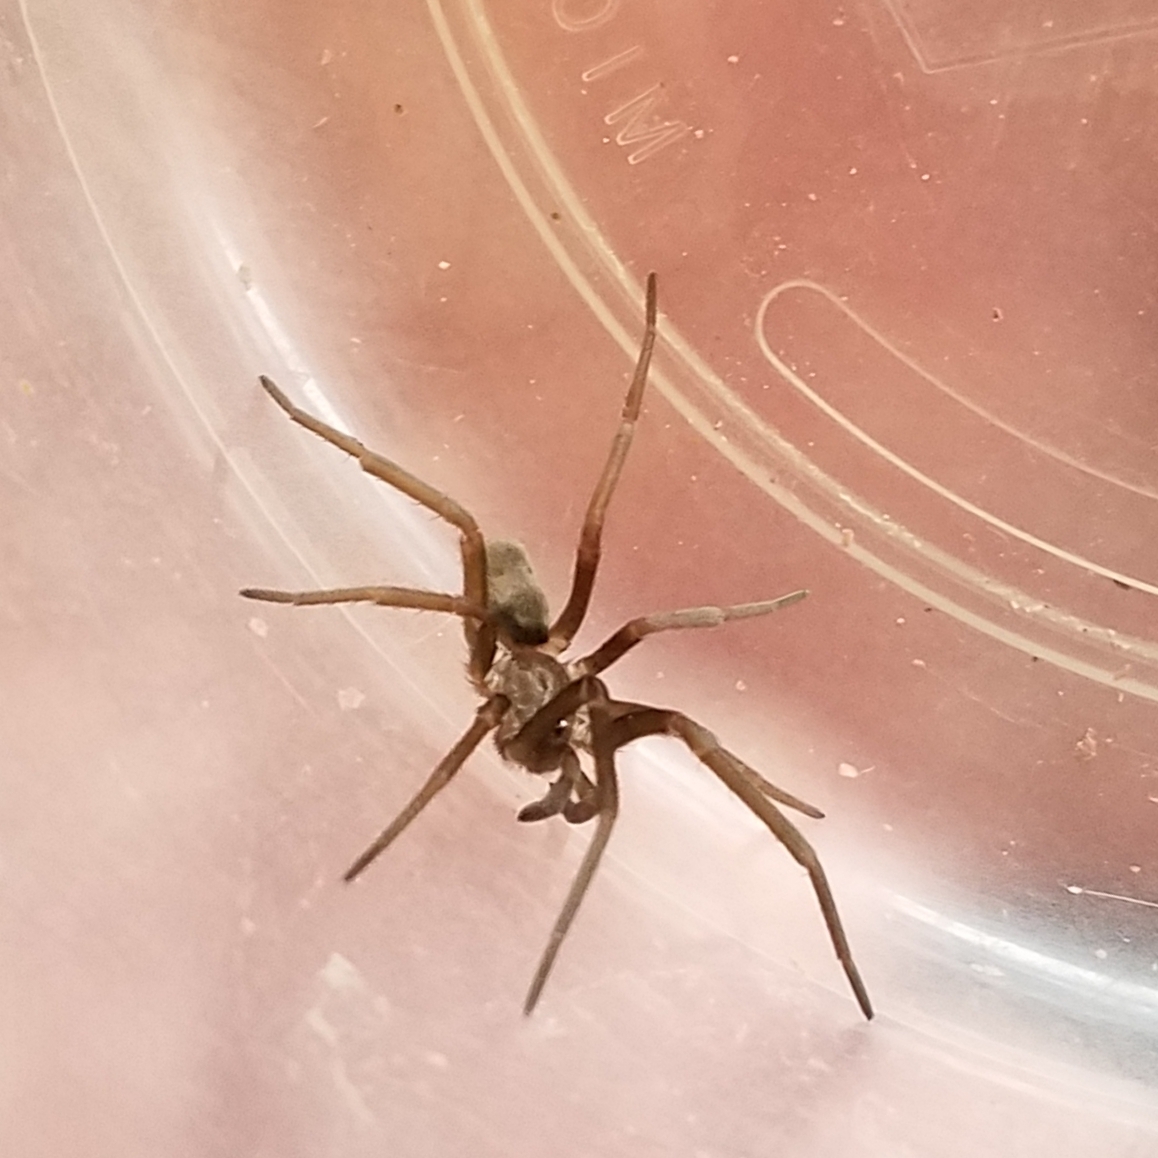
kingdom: Animalia
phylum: Arthropoda
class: Arachnida
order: Araneae
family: Filistatidae
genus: Kukulcania
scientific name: Kukulcania hibernalis
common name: Crevice weaver
